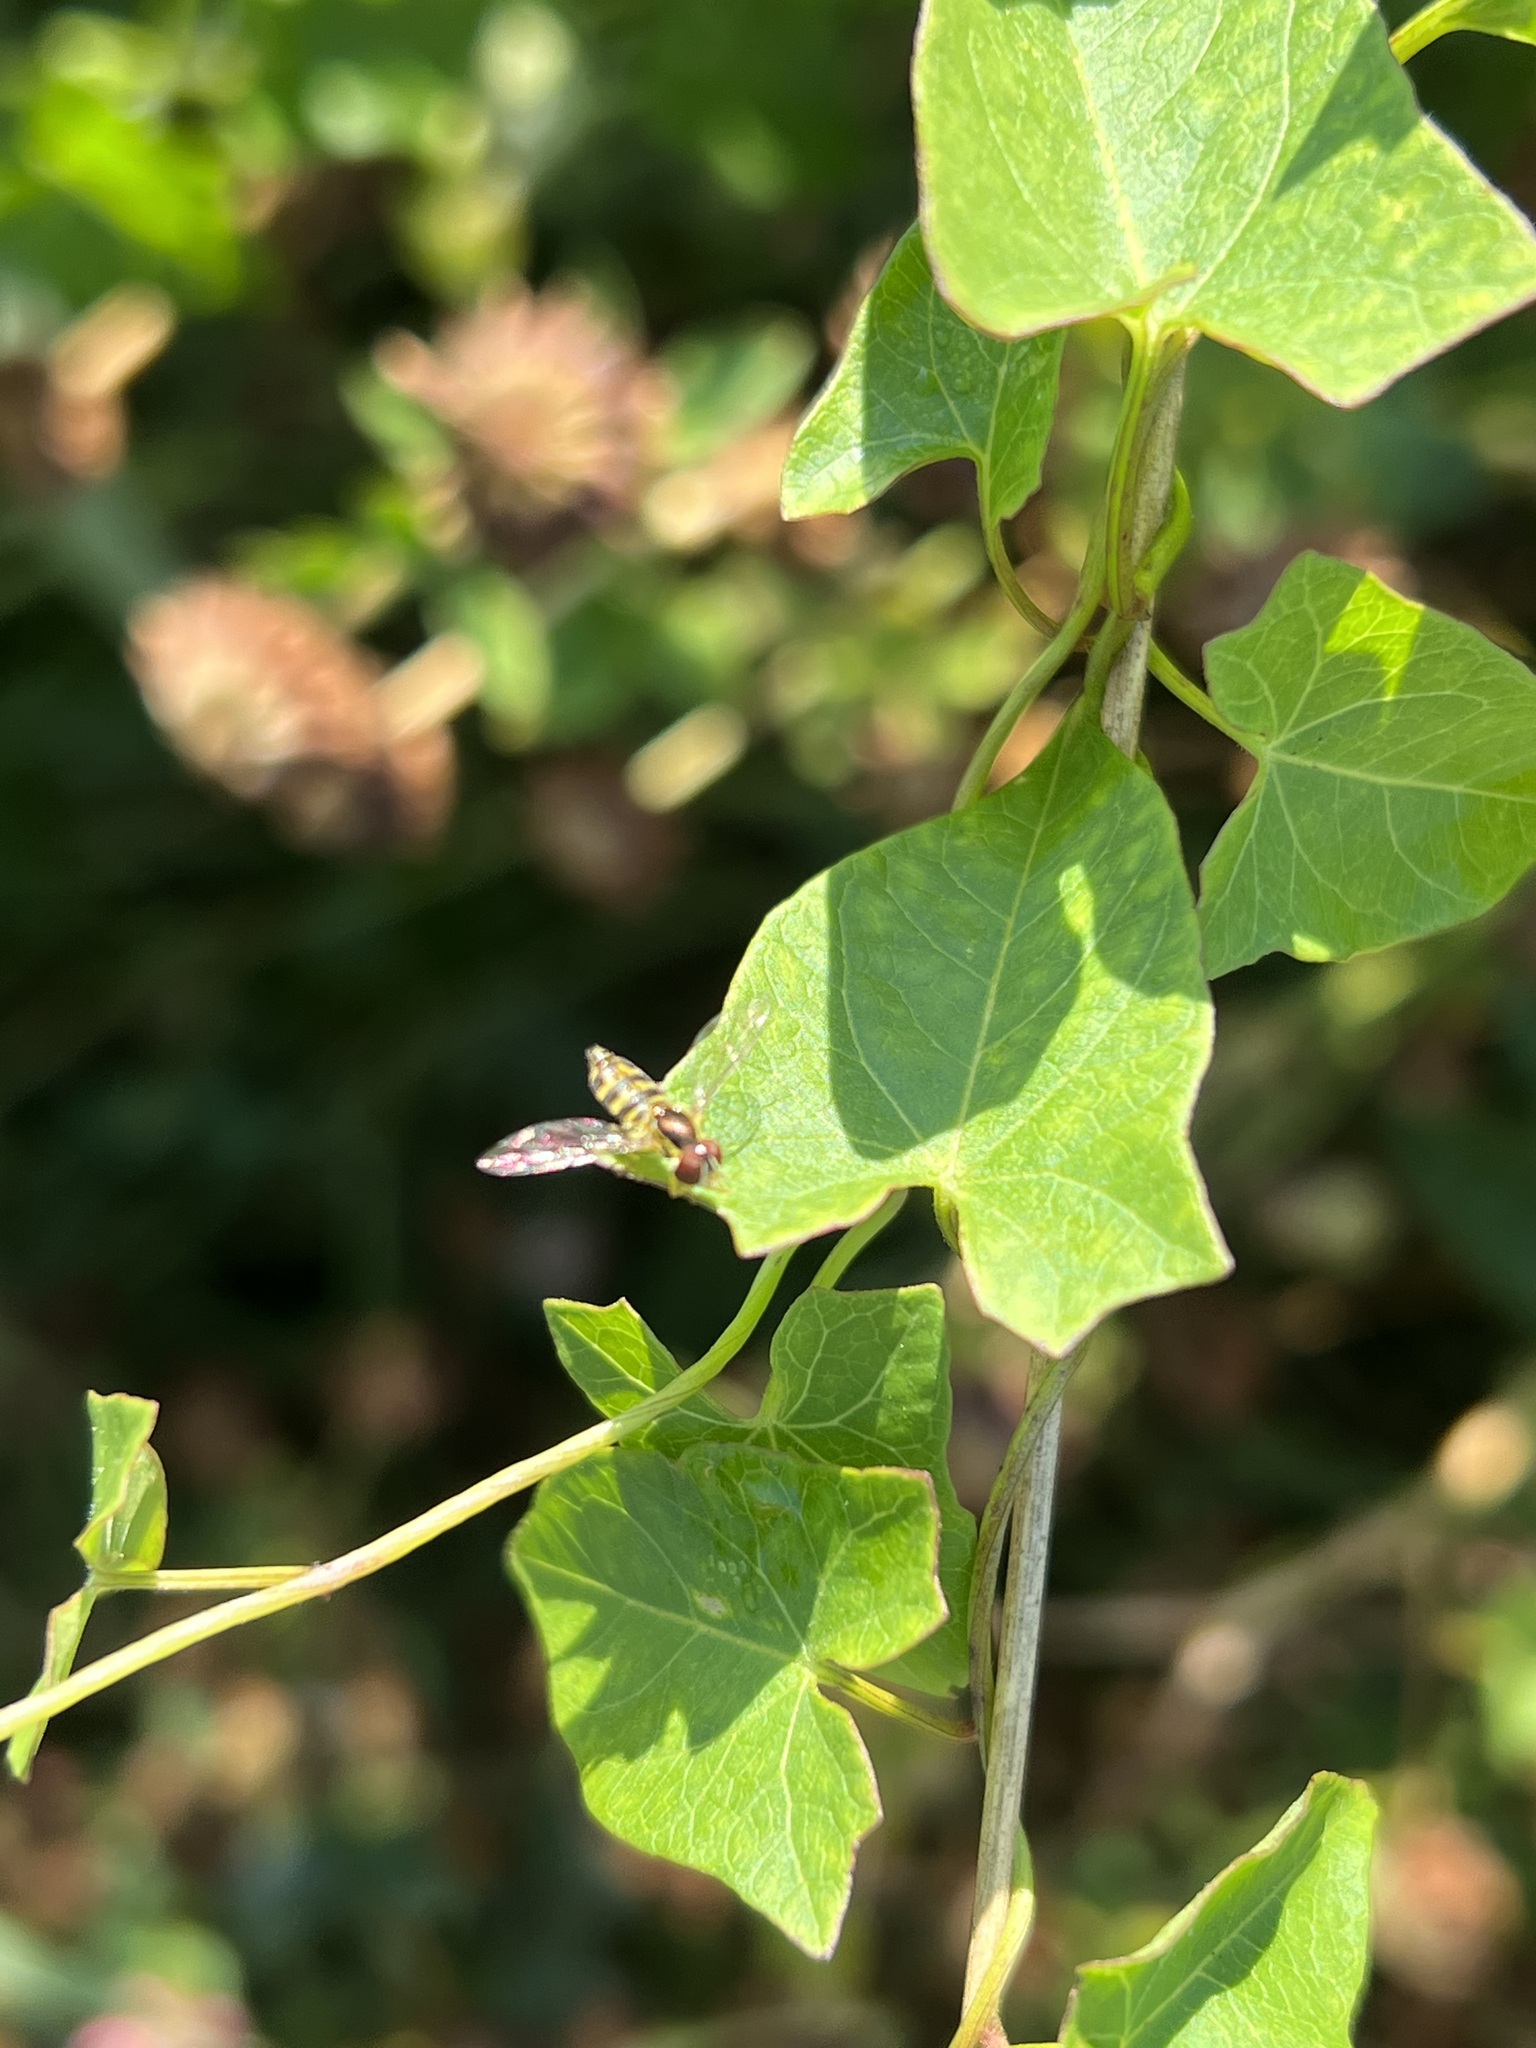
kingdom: Animalia
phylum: Arthropoda
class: Insecta
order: Diptera
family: Syrphidae
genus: Toxomerus
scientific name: Toxomerus occidentalis
